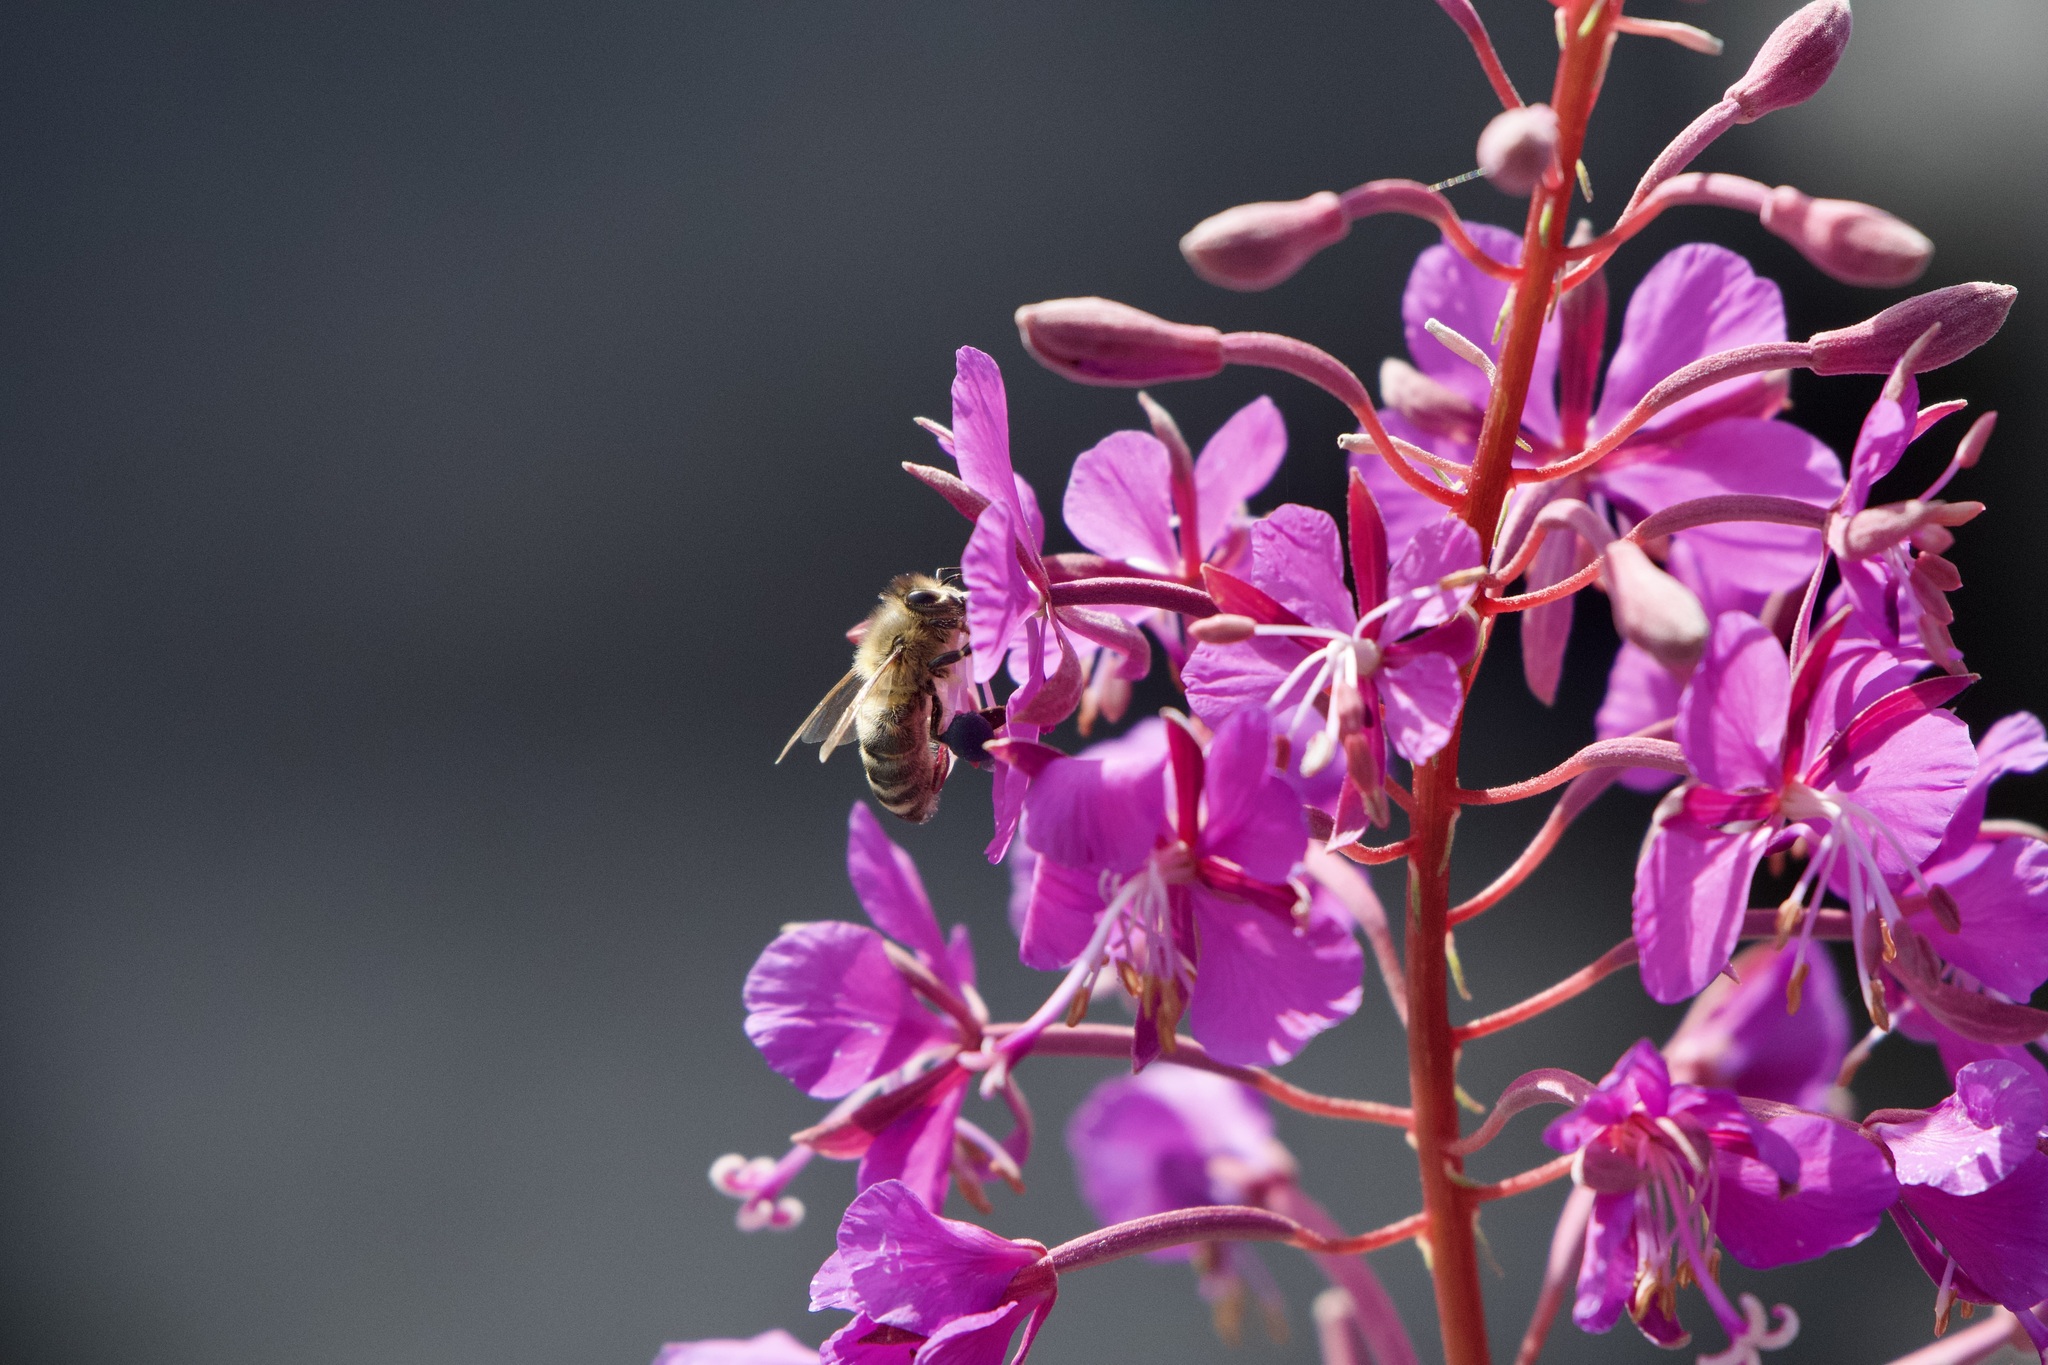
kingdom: Animalia
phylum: Arthropoda
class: Insecta
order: Hymenoptera
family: Apidae
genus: Apis
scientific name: Apis mellifera
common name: Honey bee
